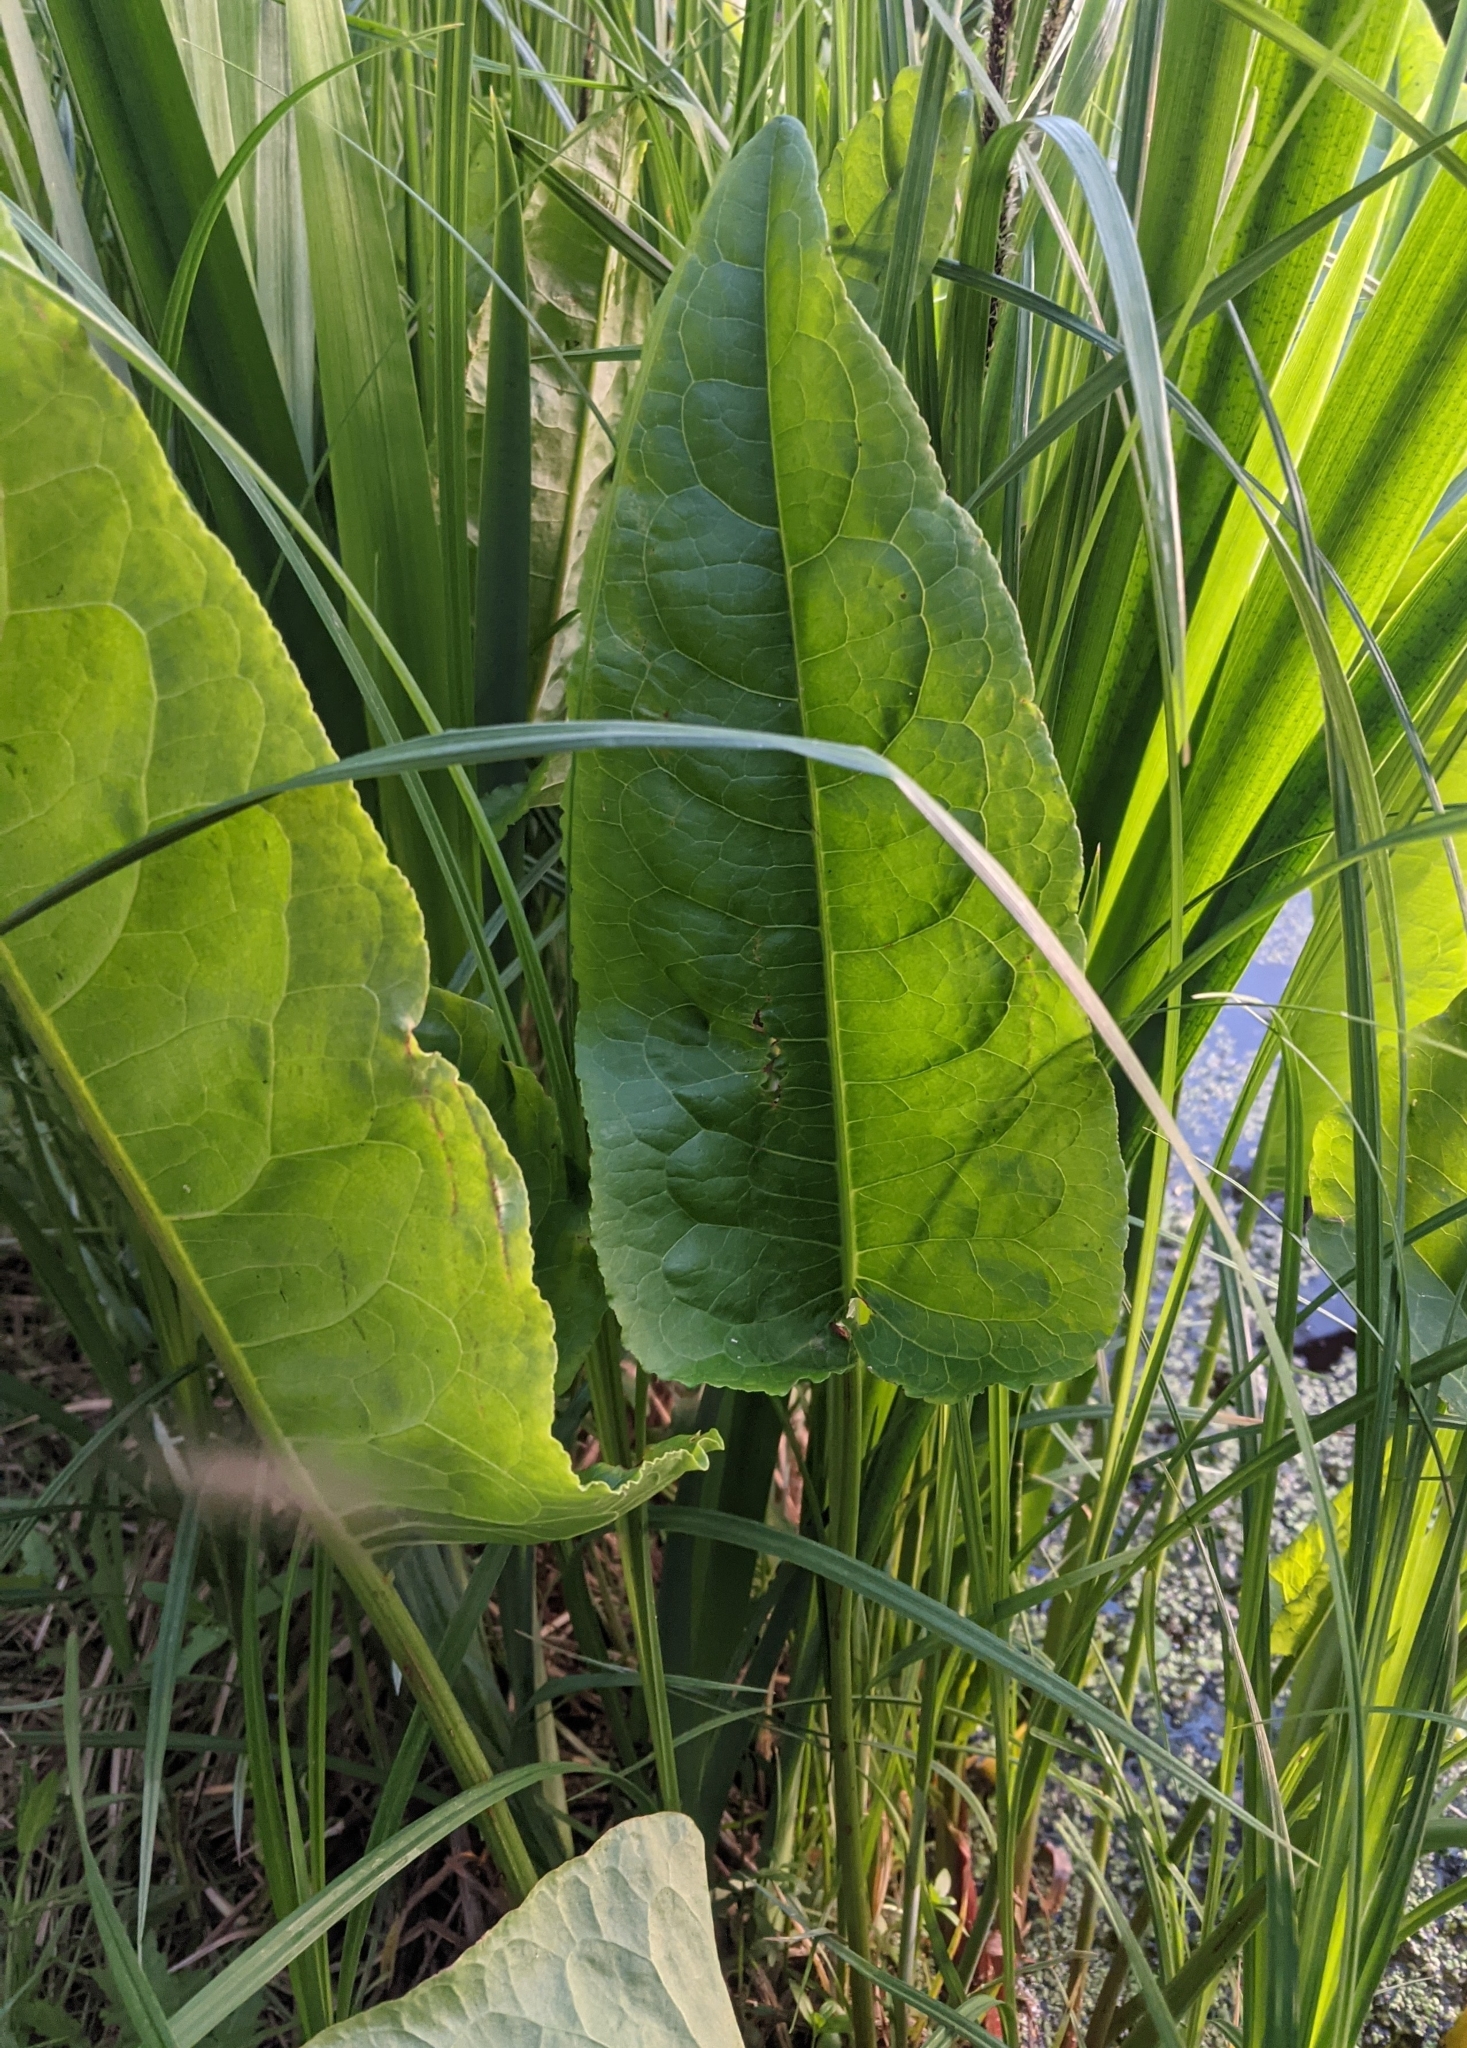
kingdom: Plantae
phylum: Tracheophyta
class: Magnoliopsida
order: Caryophyllales
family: Polygonaceae
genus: Rumex
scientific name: Rumex aquaticus
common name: Scottish dock
